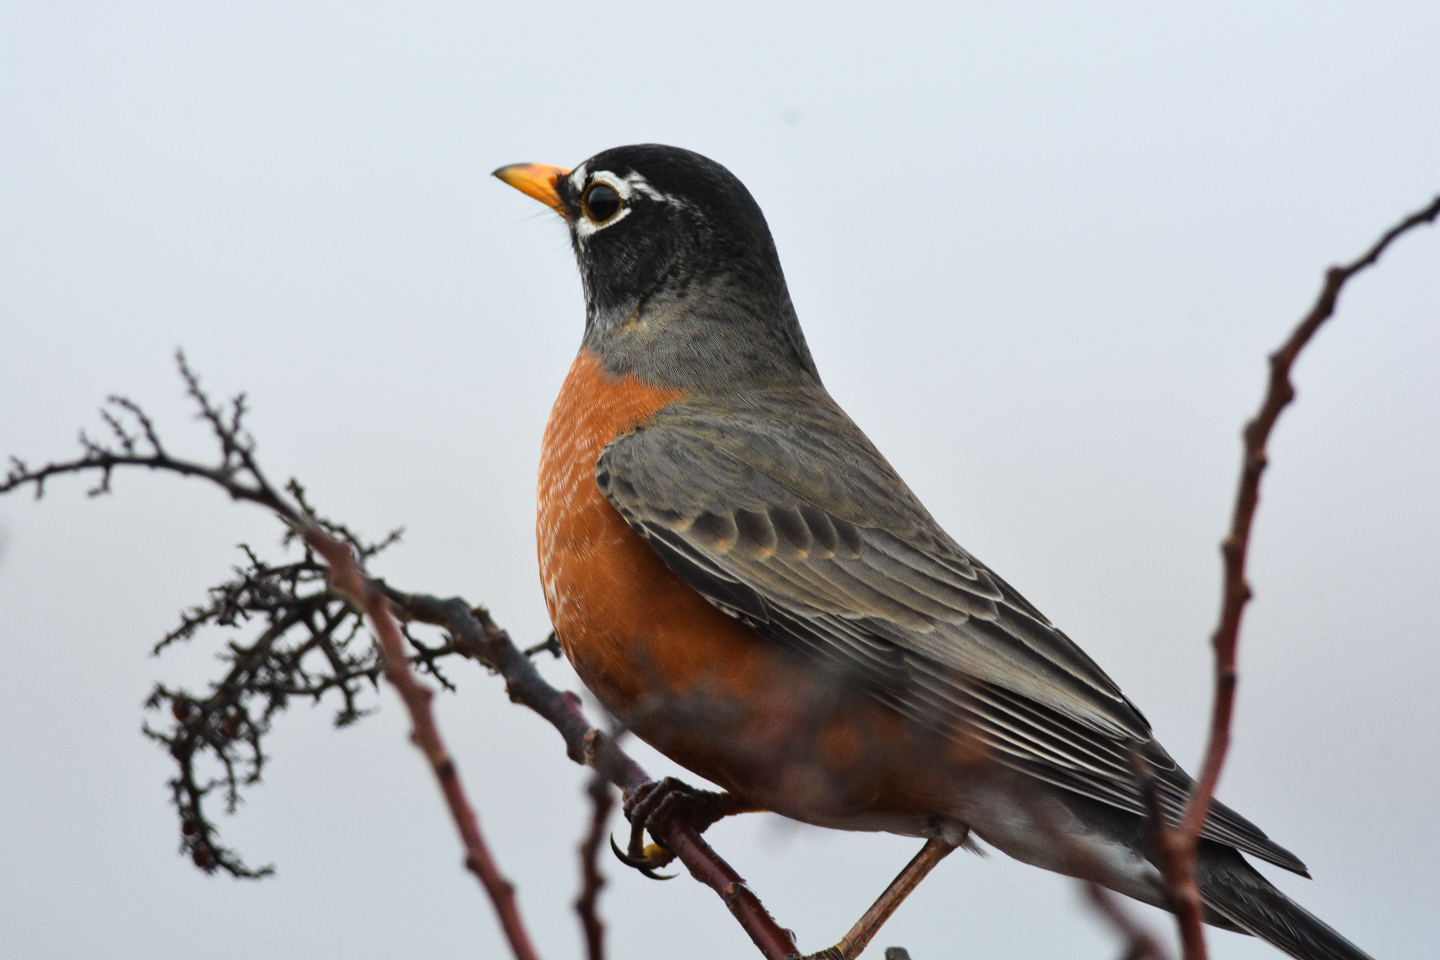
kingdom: Animalia
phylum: Chordata
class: Aves
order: Passeriformes
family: Turdidae
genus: Turdus
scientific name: Turdus migratorius
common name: American robin
